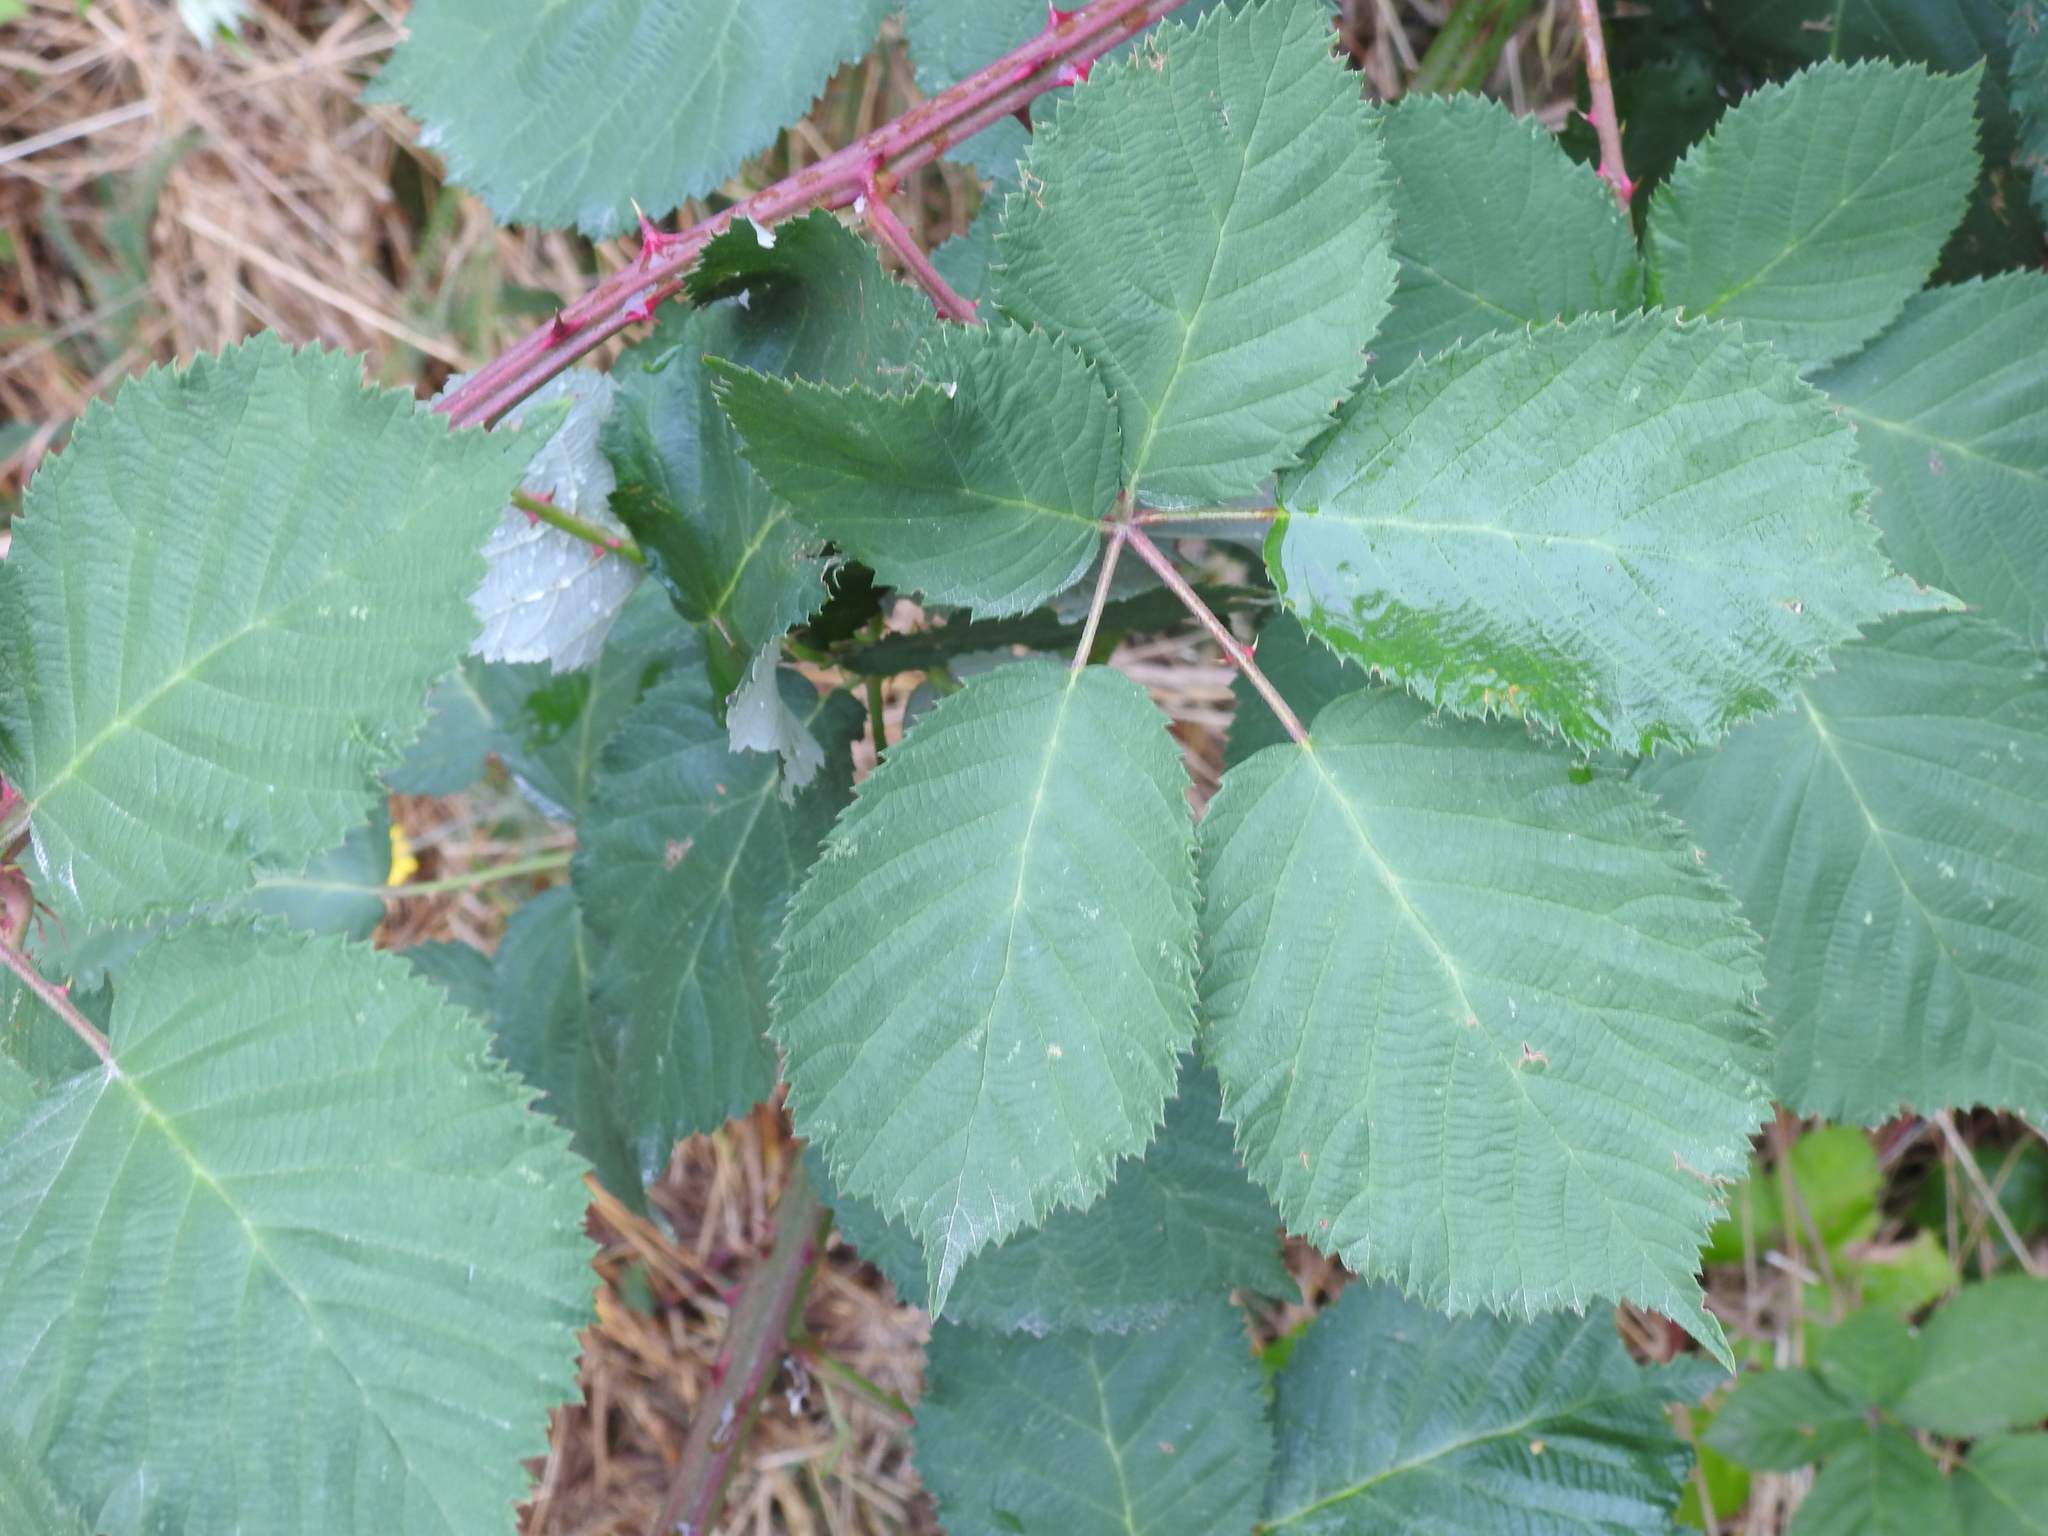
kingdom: Plantae
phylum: Tracheophyta
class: Magnoliopsida
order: Rosales
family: Rosaceae
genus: Rubus
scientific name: Rubus armeniacus
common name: Himalayan blackberry
